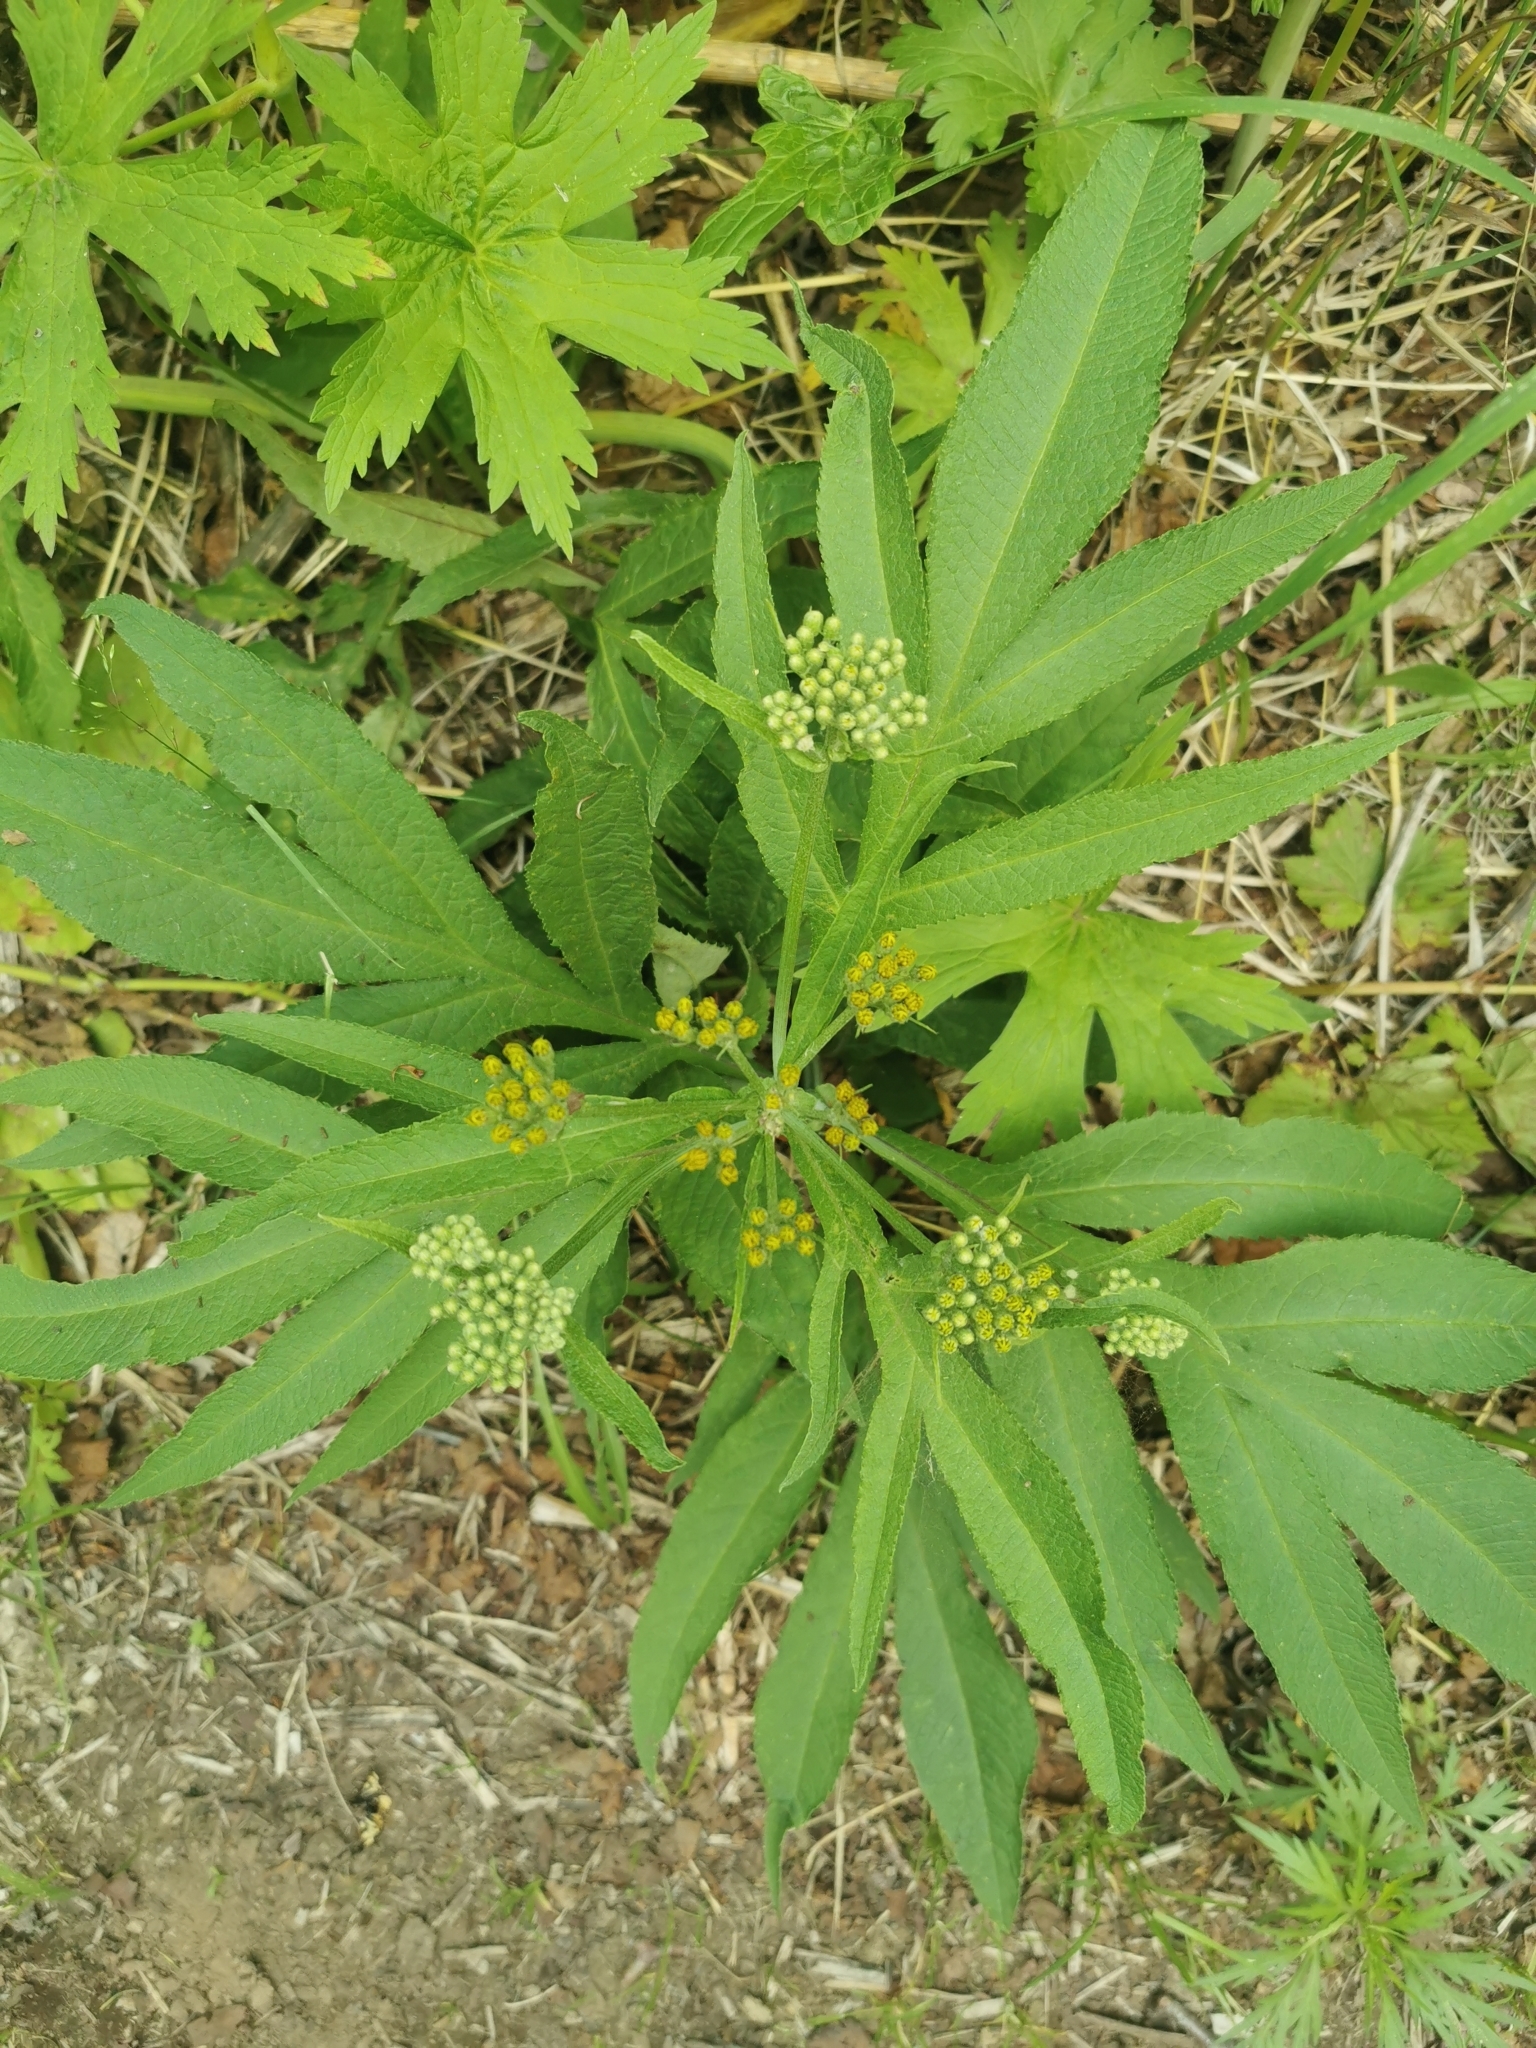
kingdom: Plantae
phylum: Tracheophyta
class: Magnoliopsida
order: Asterales
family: Asteraceae
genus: Jacobaea
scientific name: Jacobaea cannabifolia
